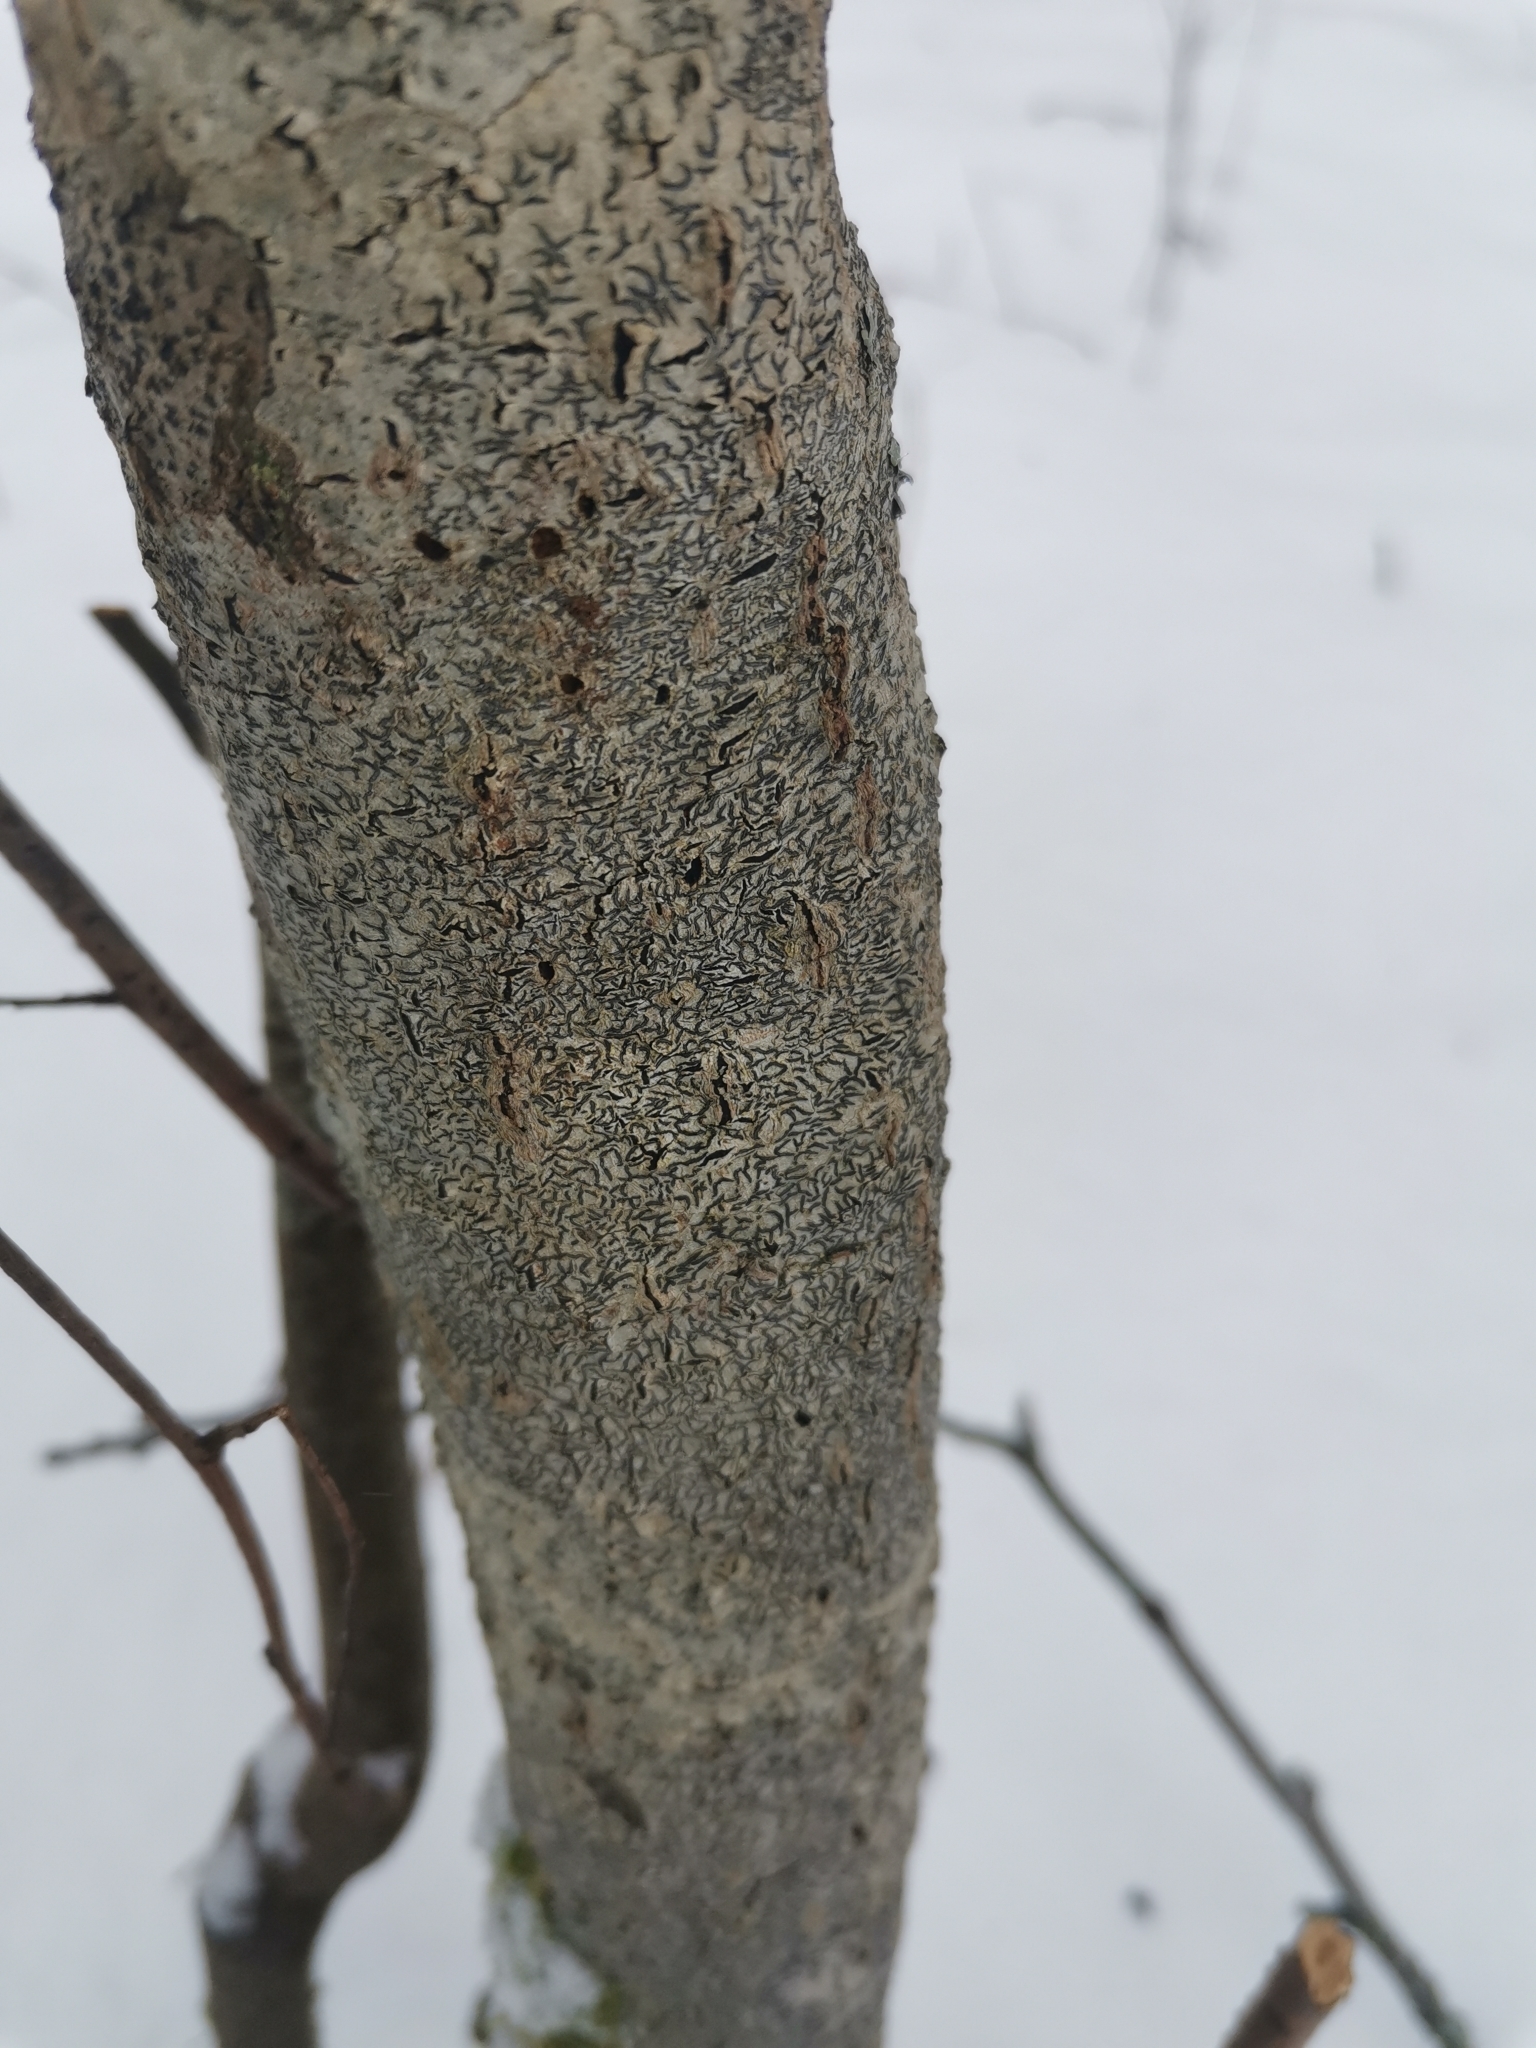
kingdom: Fungi
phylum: Ascomycota
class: Lecanoromycetes
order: Ostropales
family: Graphidaceae
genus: Graphis
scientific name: Graphis scripta
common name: Script lichen
